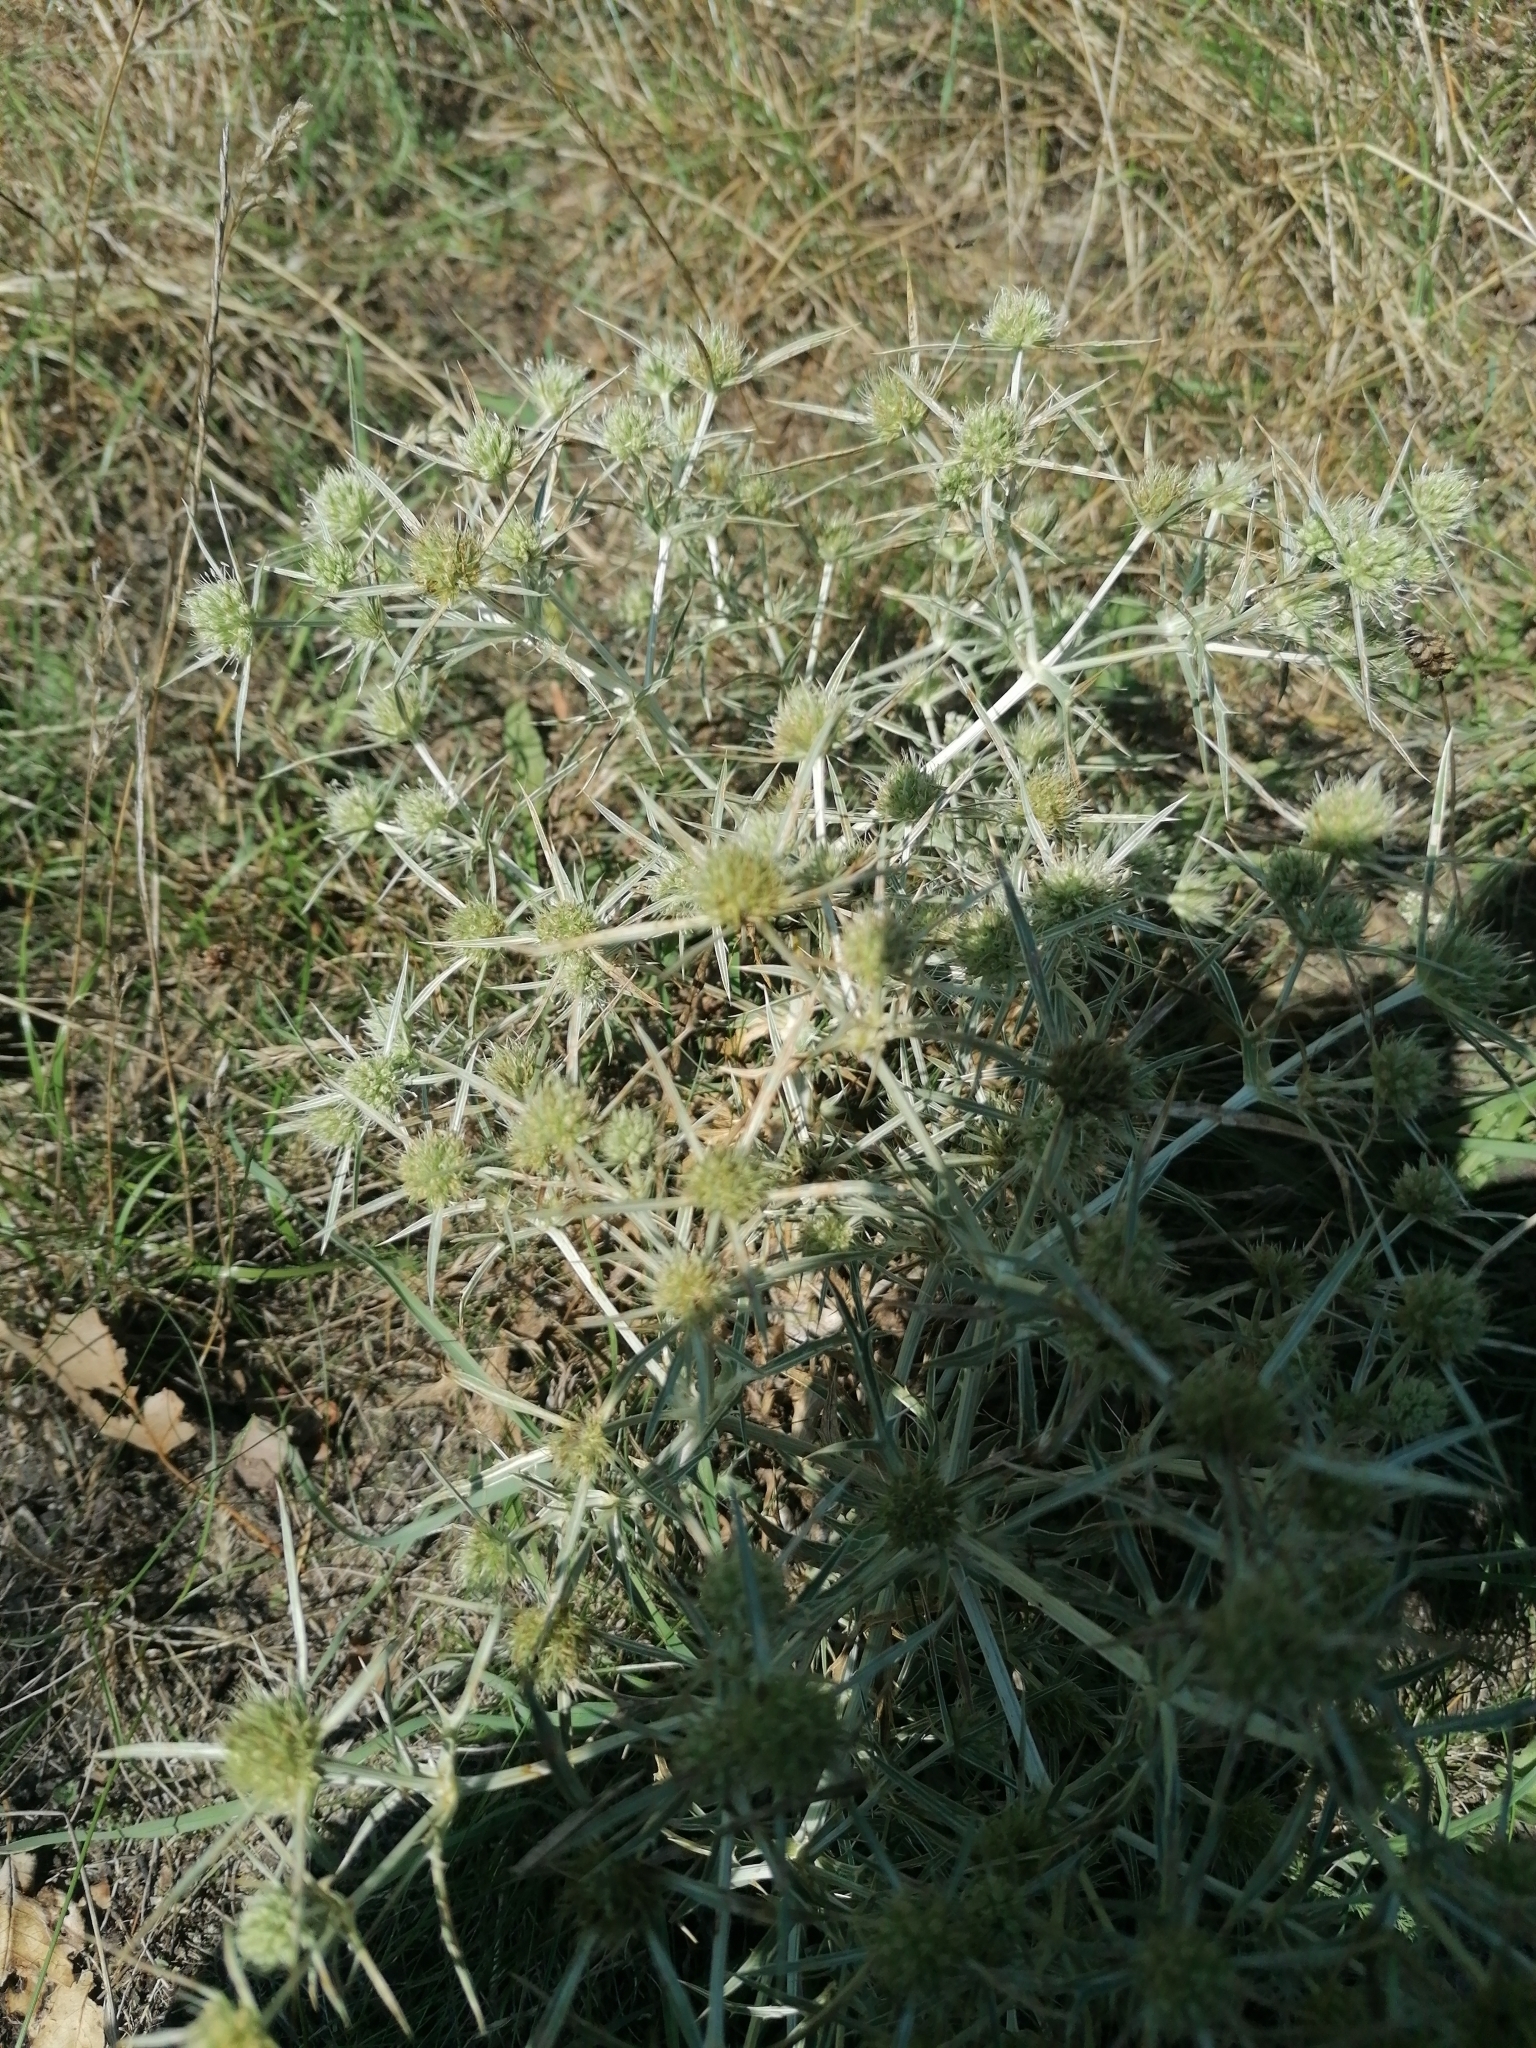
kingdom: Plantae
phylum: Tracheophyta
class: Magnoliopsida
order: Apiales
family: Apiaceae
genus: Eryngium
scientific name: Eryngium campestre
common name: Field eryngo
